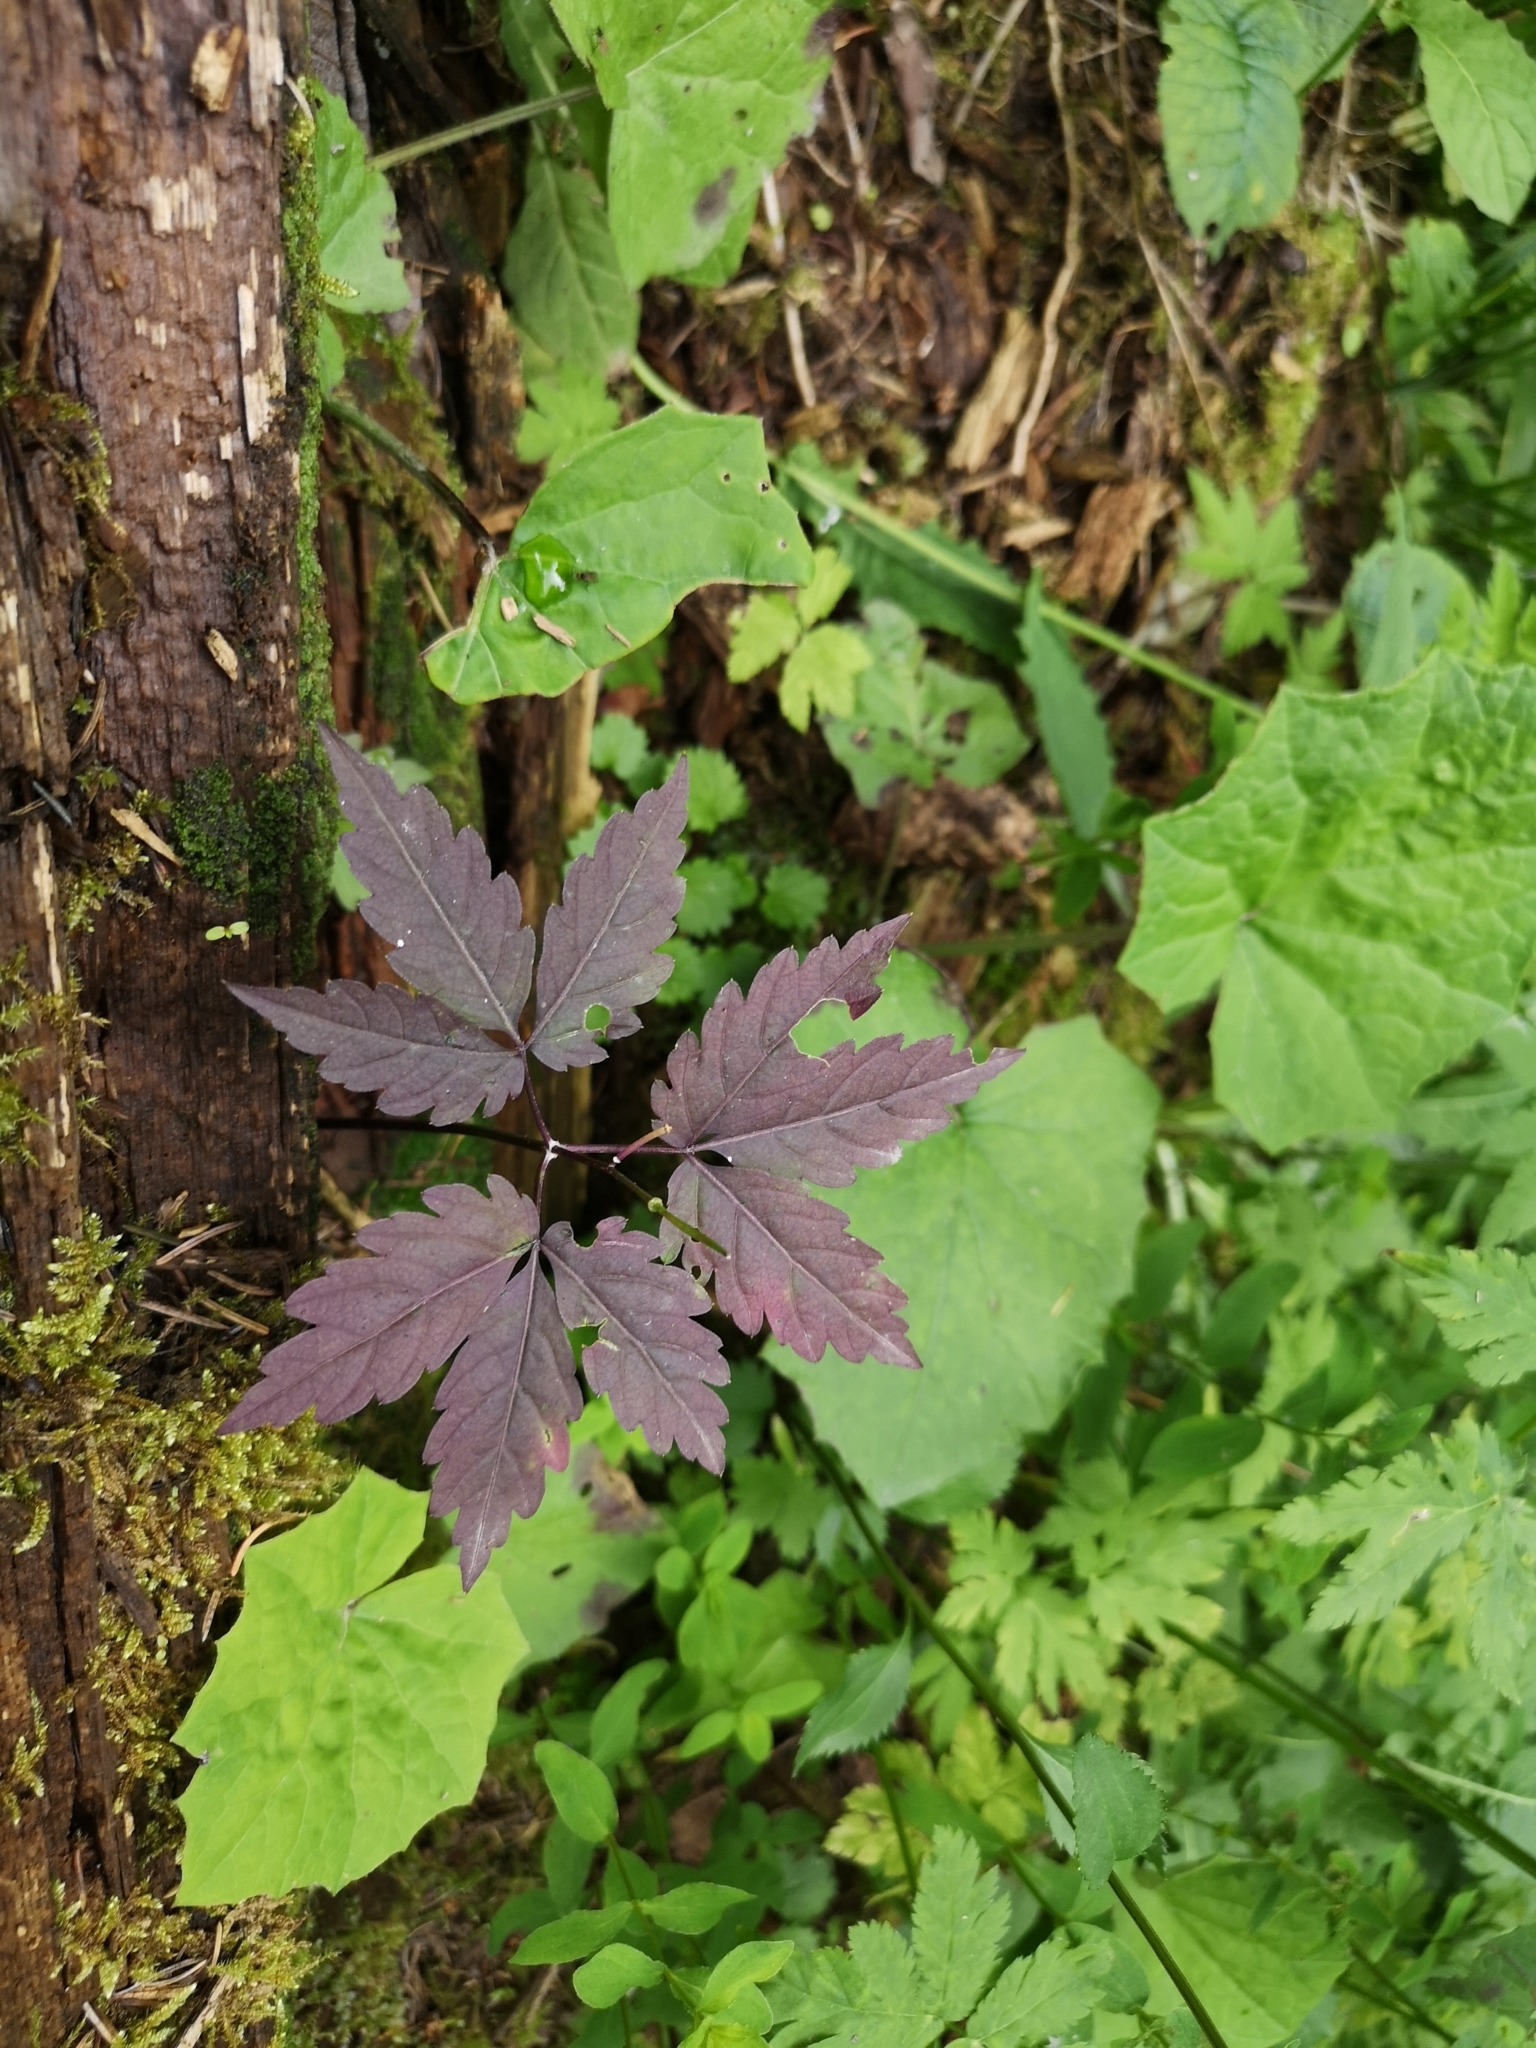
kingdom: Plantae
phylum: Tracheophyta
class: Magnoliopsida
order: Brassicales
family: Brassicaceae
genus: Cardamine
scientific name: Cardamine glanduligera
